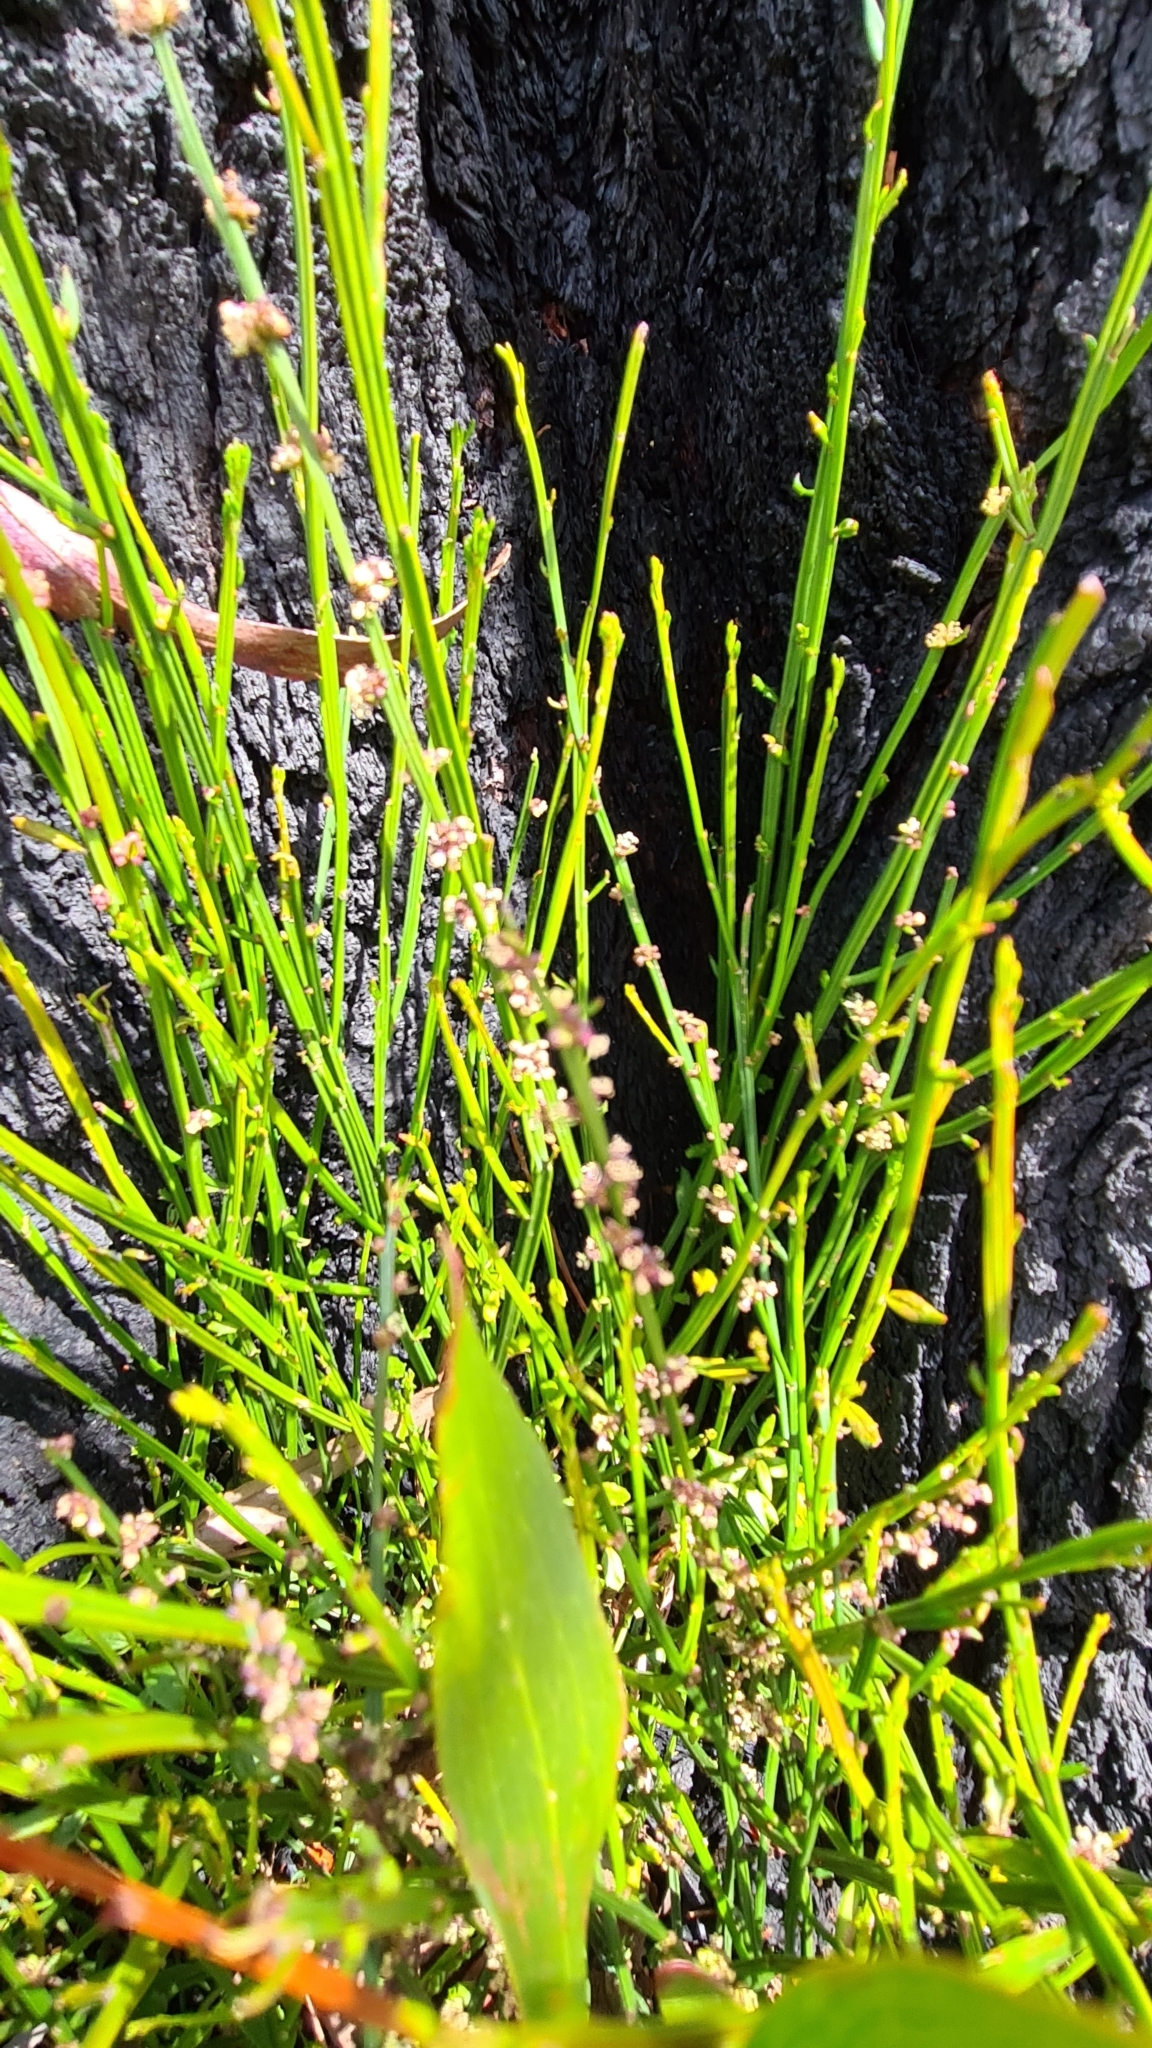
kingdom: Plantae
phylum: Tracheophyta
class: Magnoliopsida
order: Malpighiales
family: Euphorbiaceae
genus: Amperea
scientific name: Amperea xiphoclada
